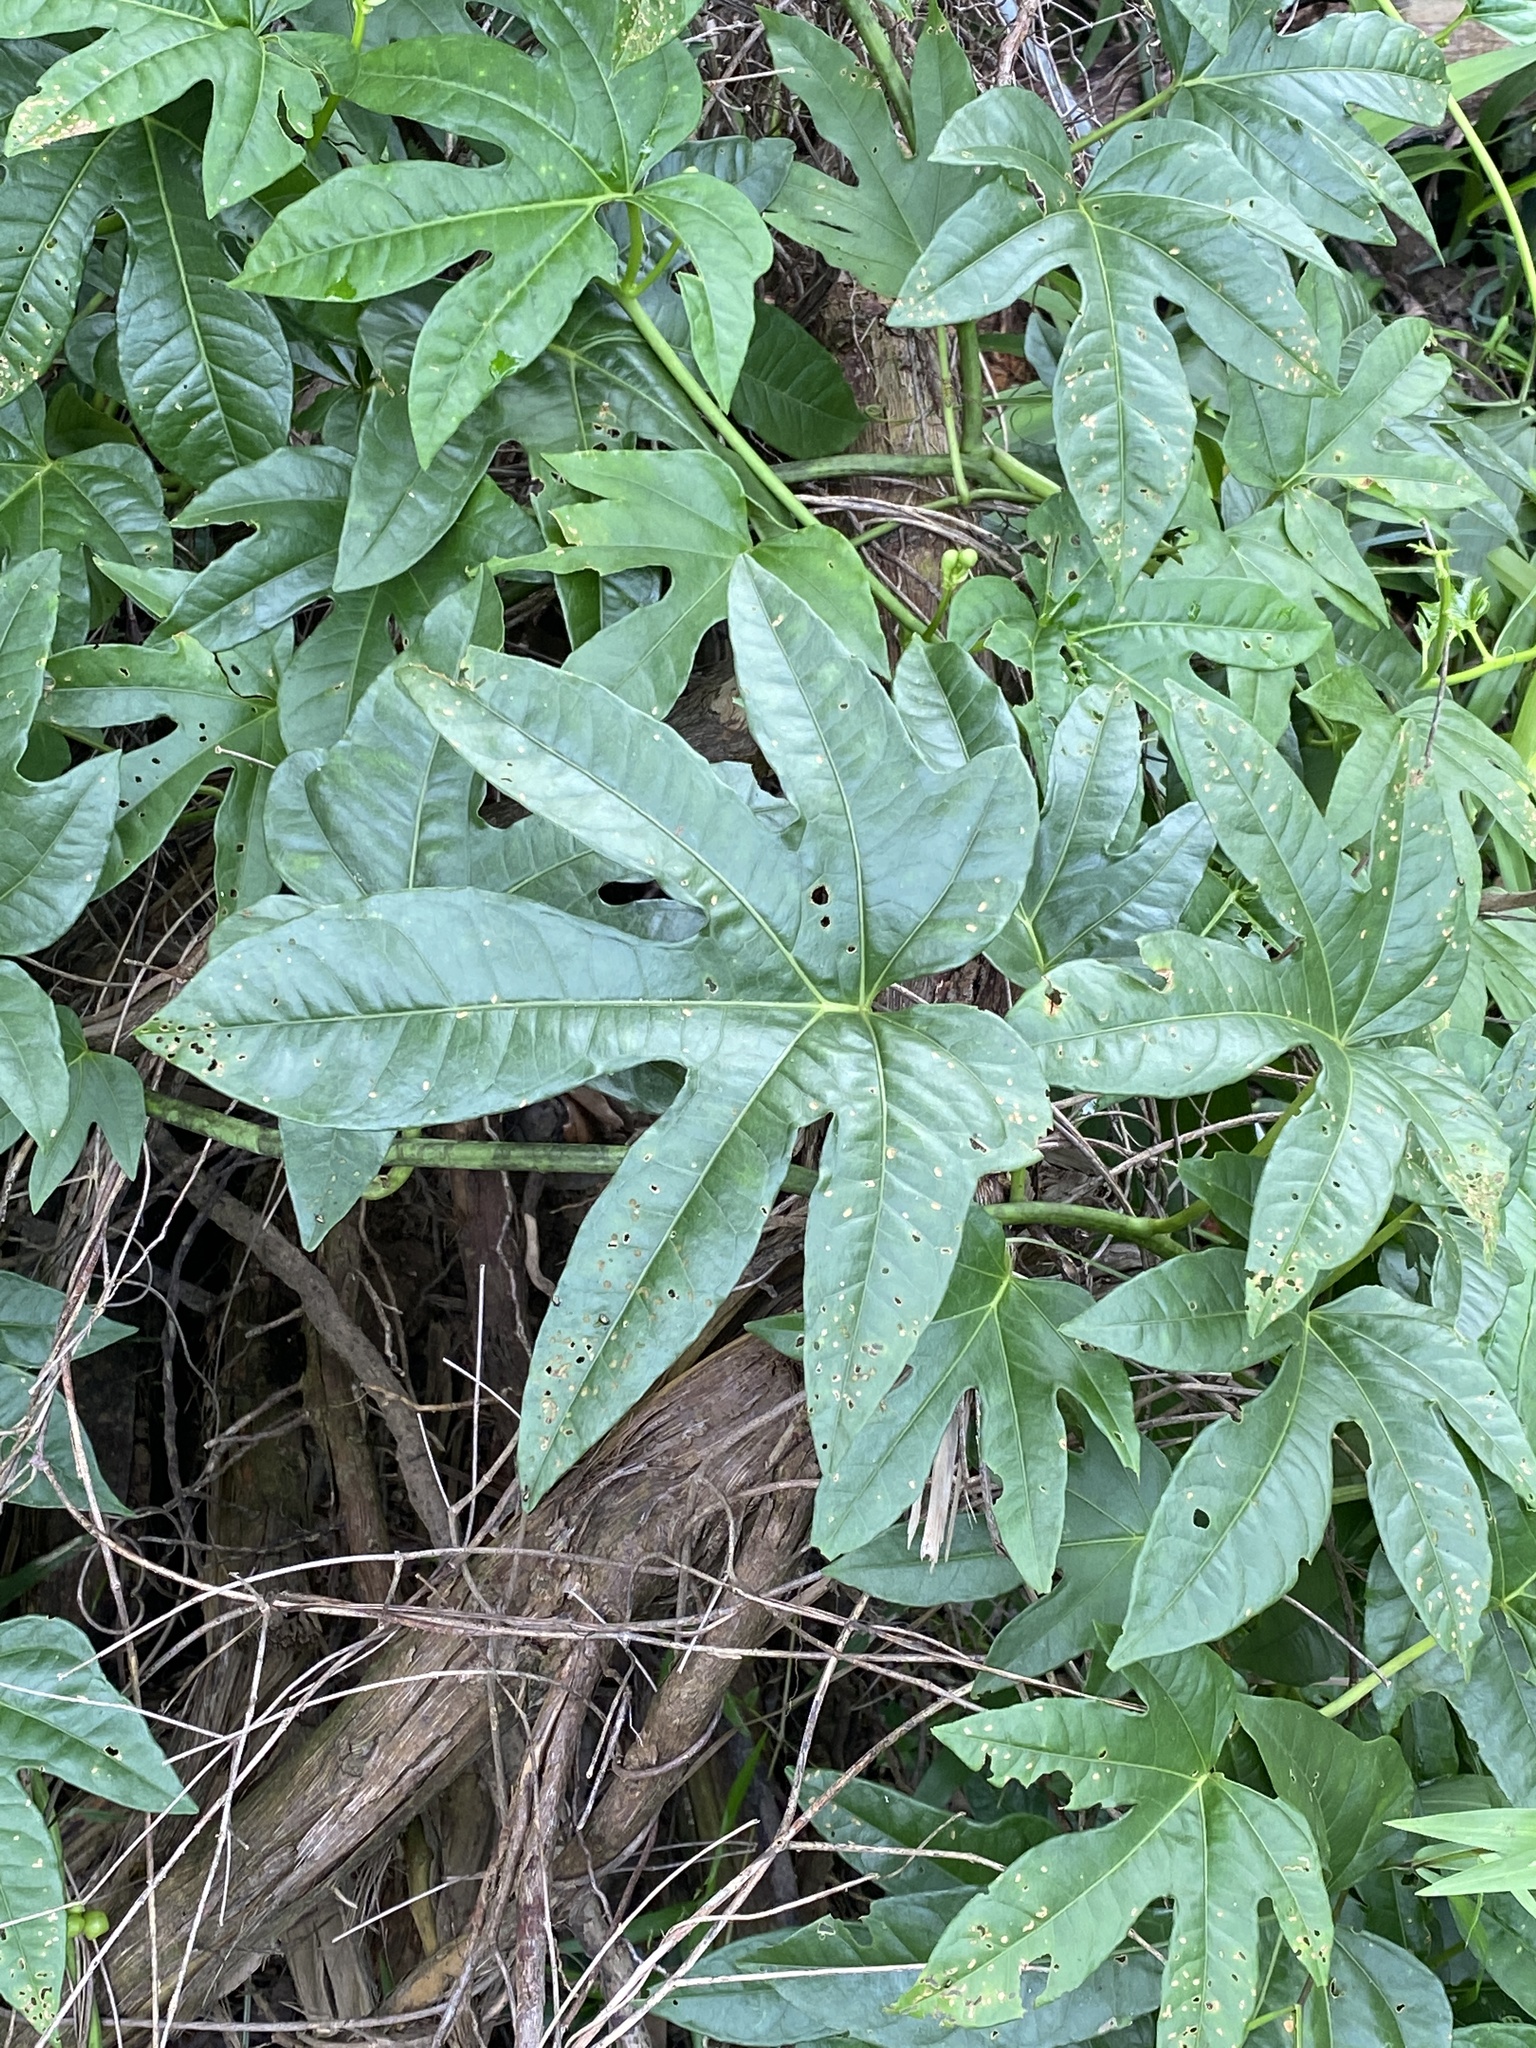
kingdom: Plantae
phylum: Tracheophyta
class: Magnoliopsida
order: Solanales
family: Convolvulaceae
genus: Ipomoea
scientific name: Ipomoea mauritiana
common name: Mauritanian convolvulus
